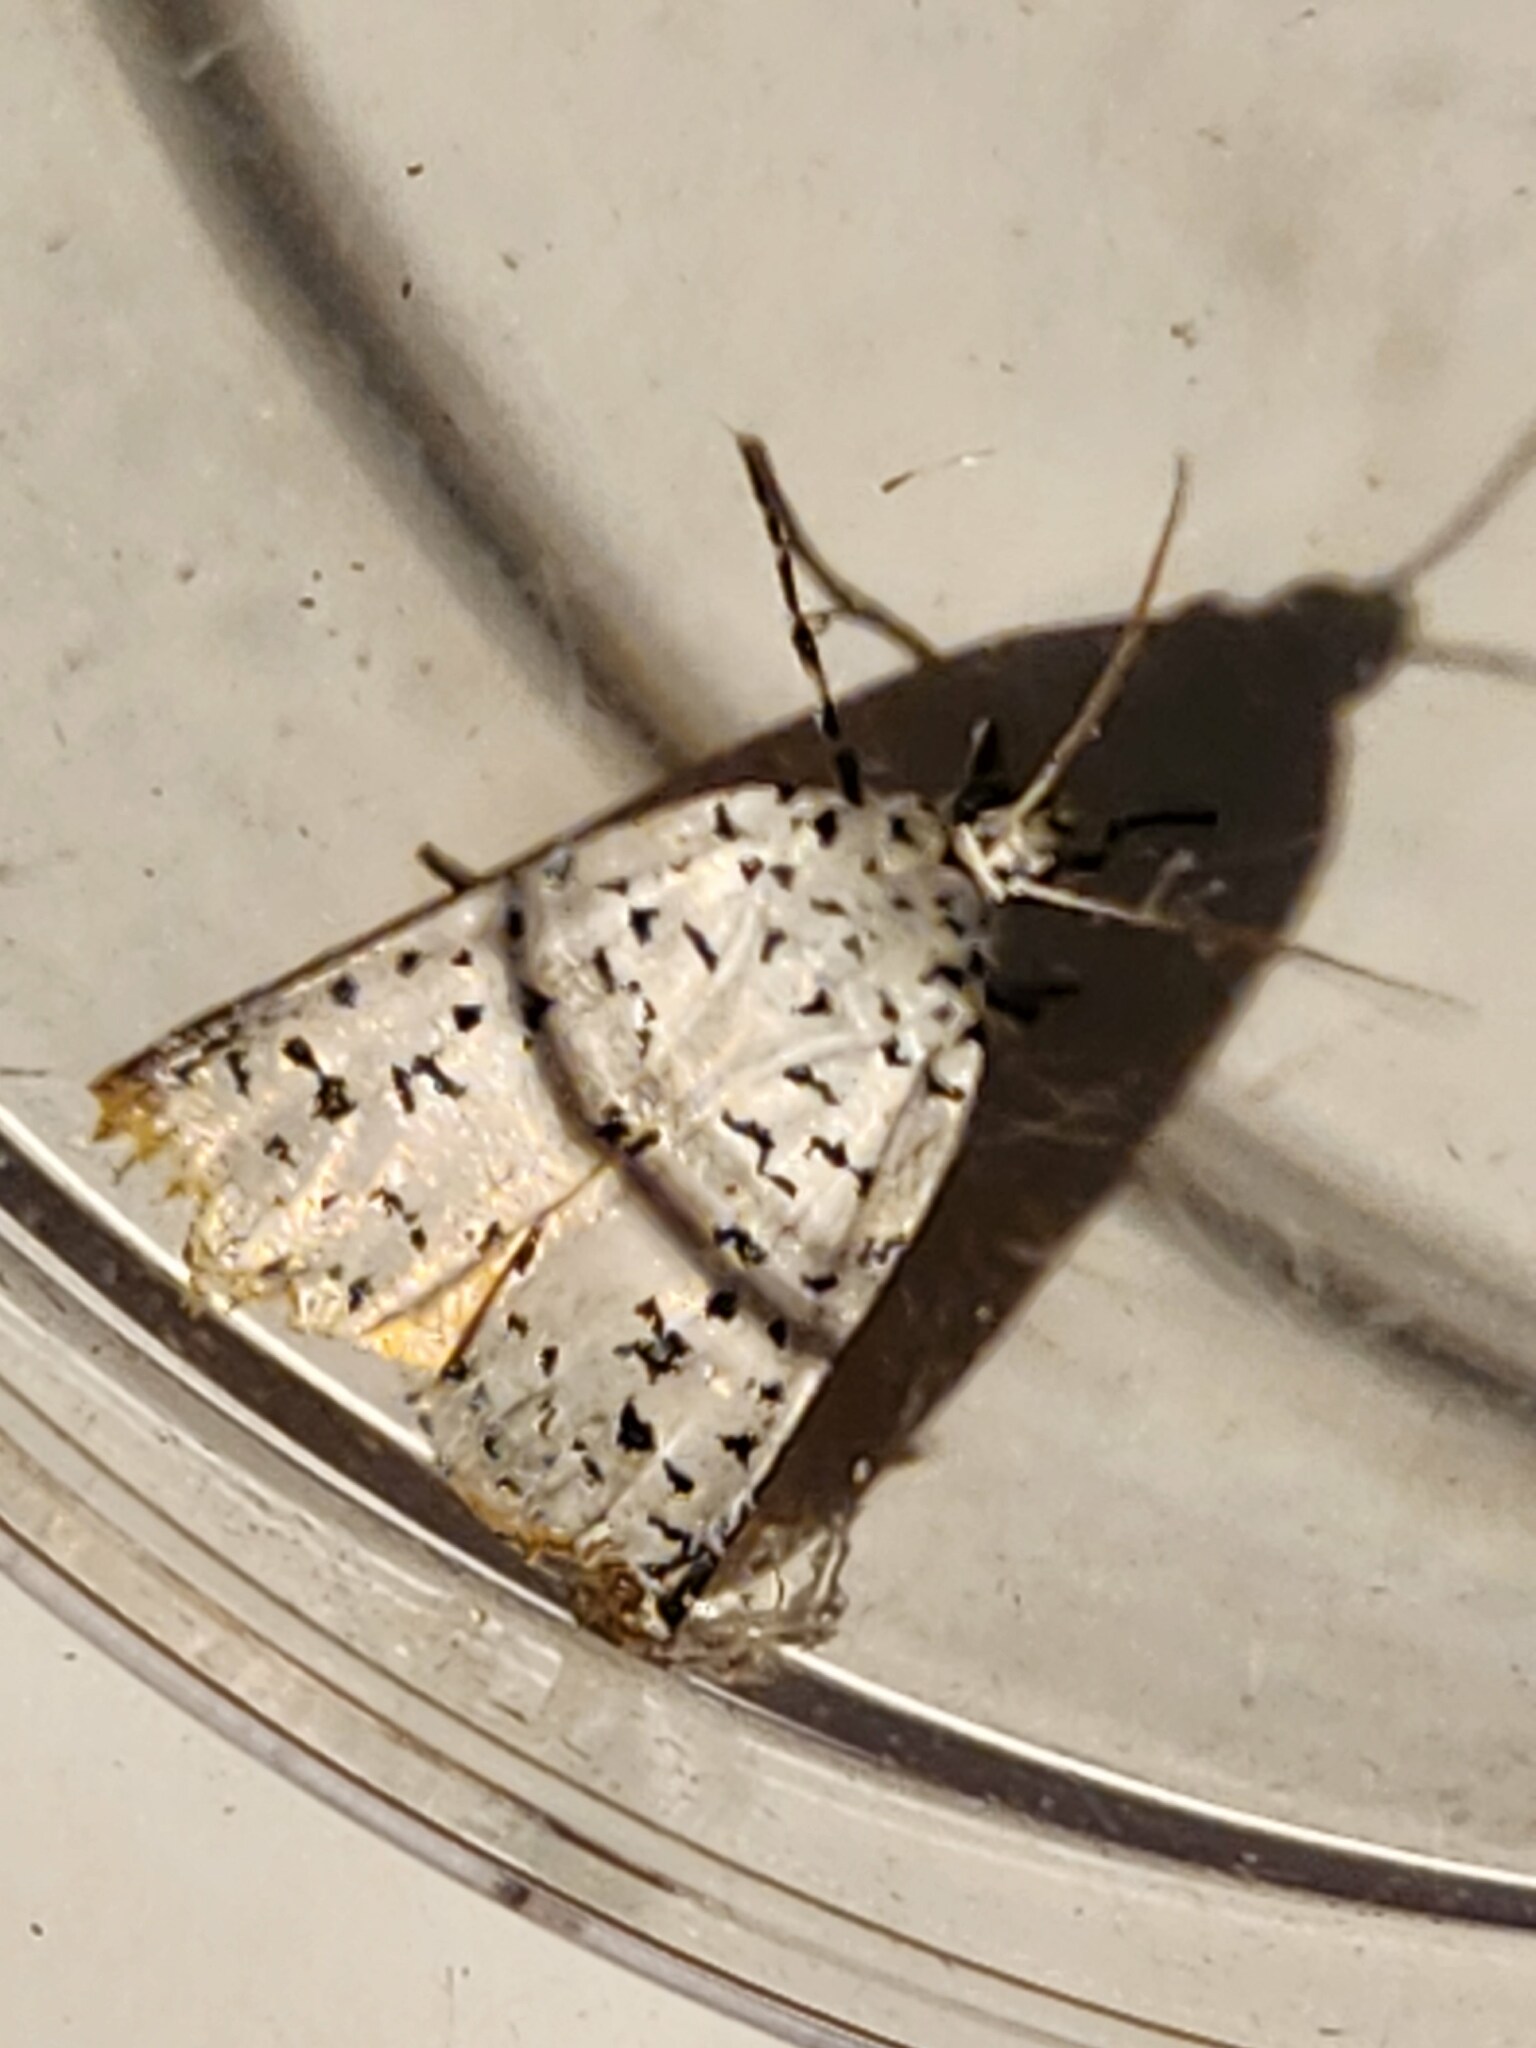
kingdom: Animalia
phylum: Arthropoda
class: Insecta
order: Lepidoptera
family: Noctuidae
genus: Cerathosia
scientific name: Cerathosia tricolor
